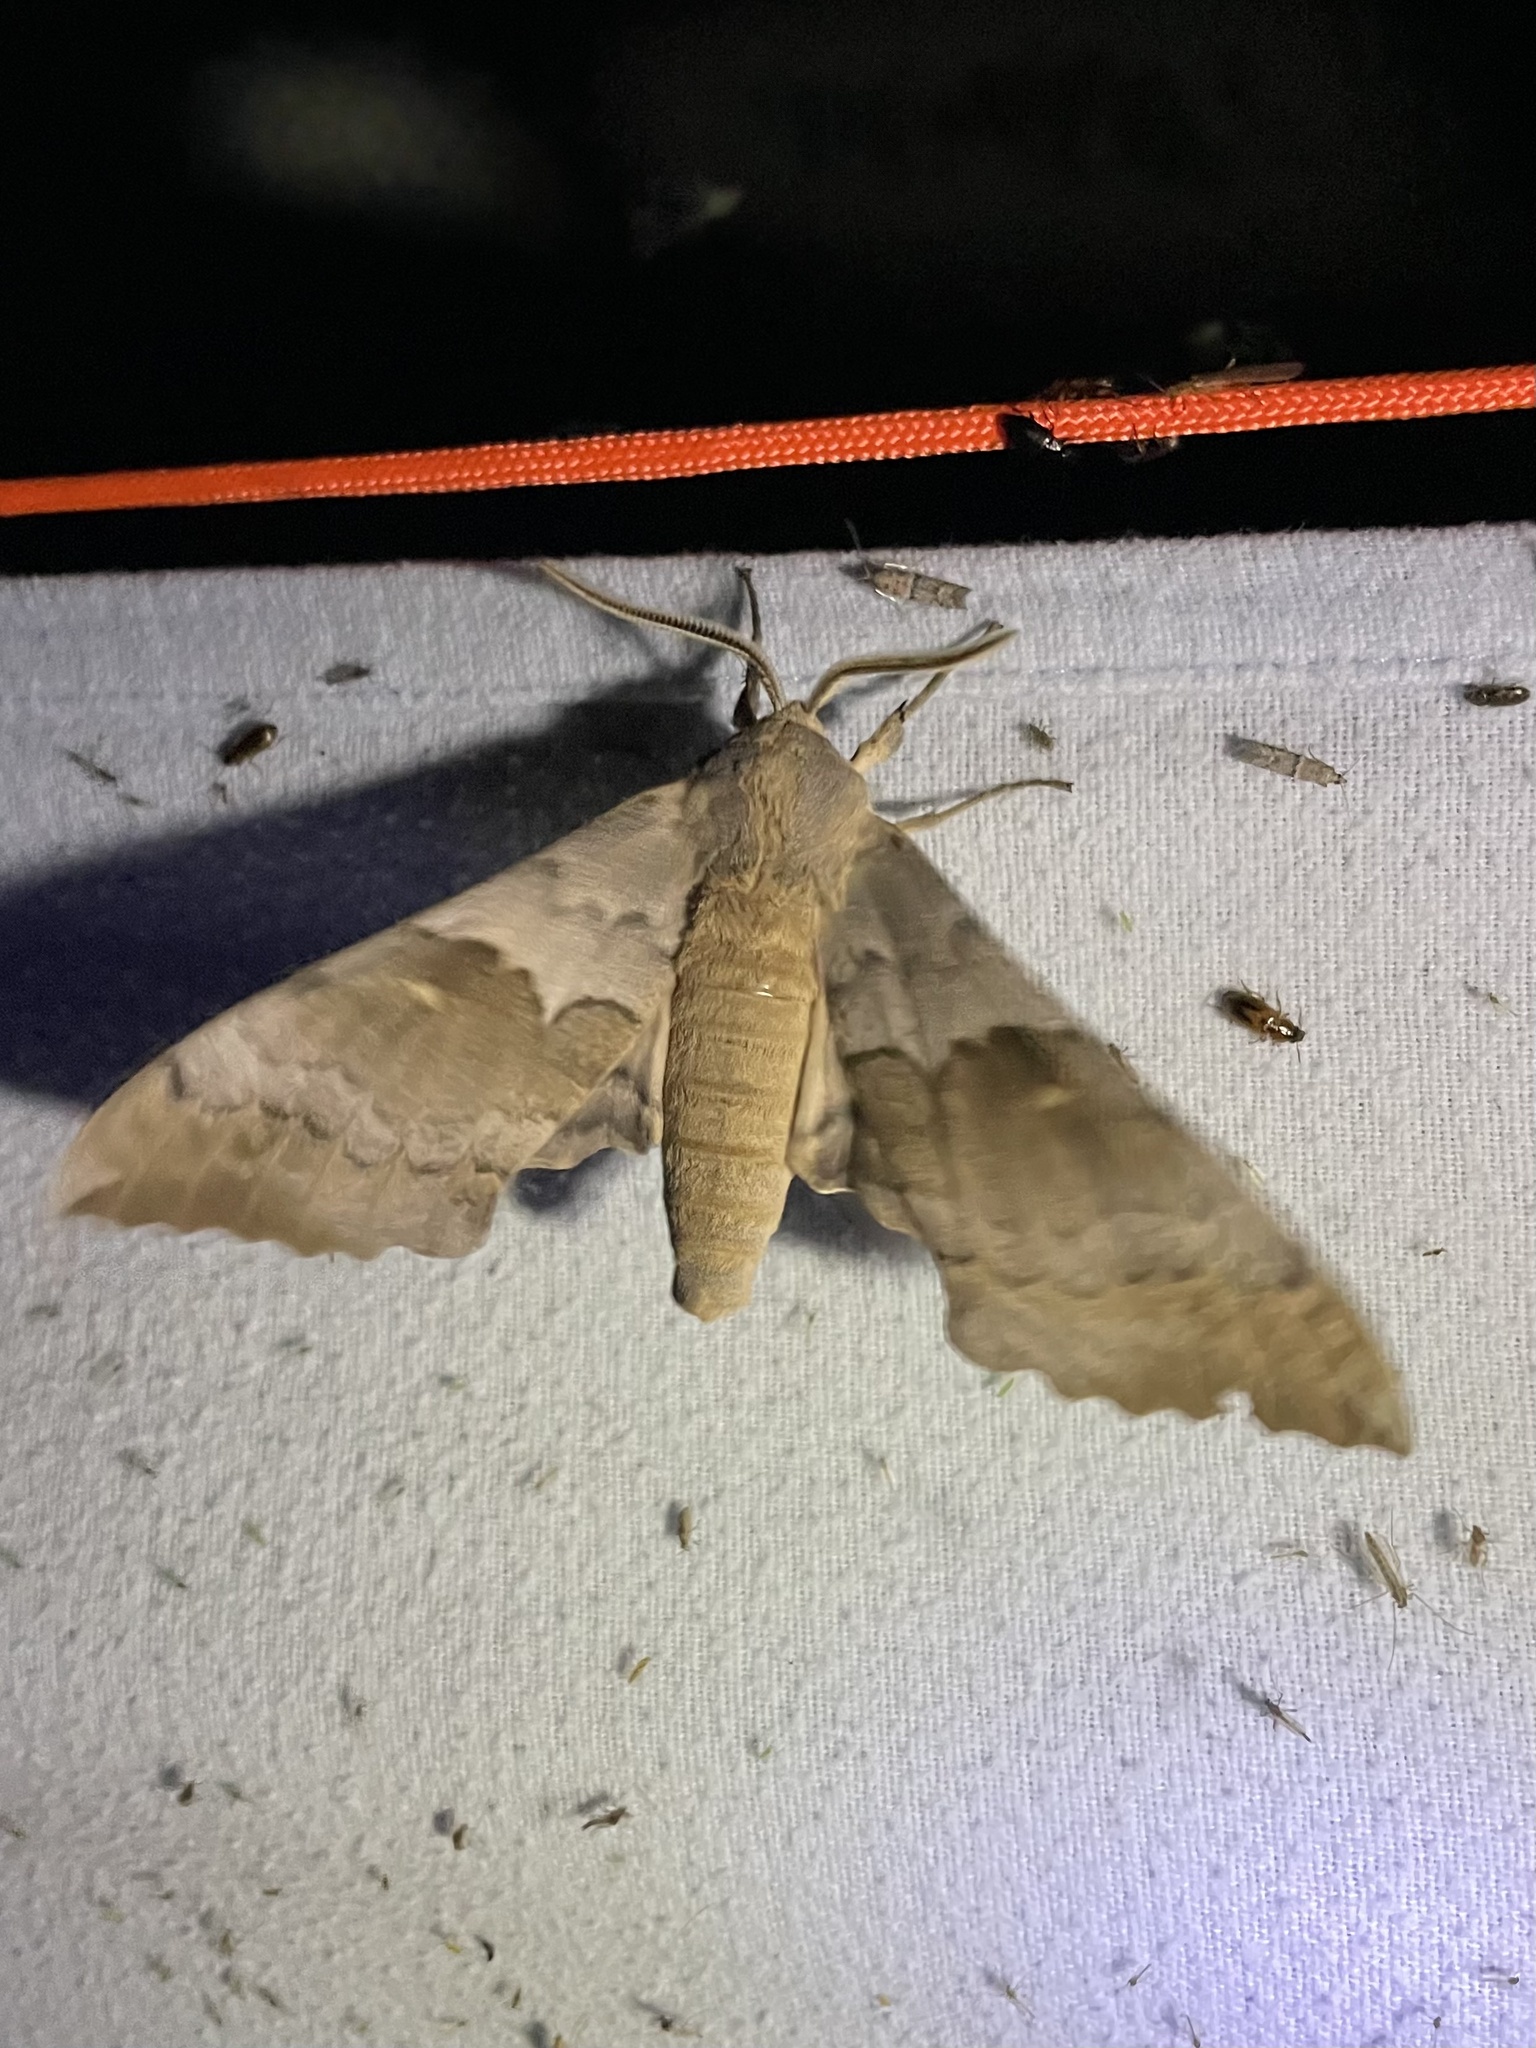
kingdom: Animalia
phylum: Arthropoda
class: Insecta
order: Lepidoptera
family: Sphingidae
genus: Pachysphinx
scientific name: Pachysphinx occidentalis
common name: Western poplar sphinx
